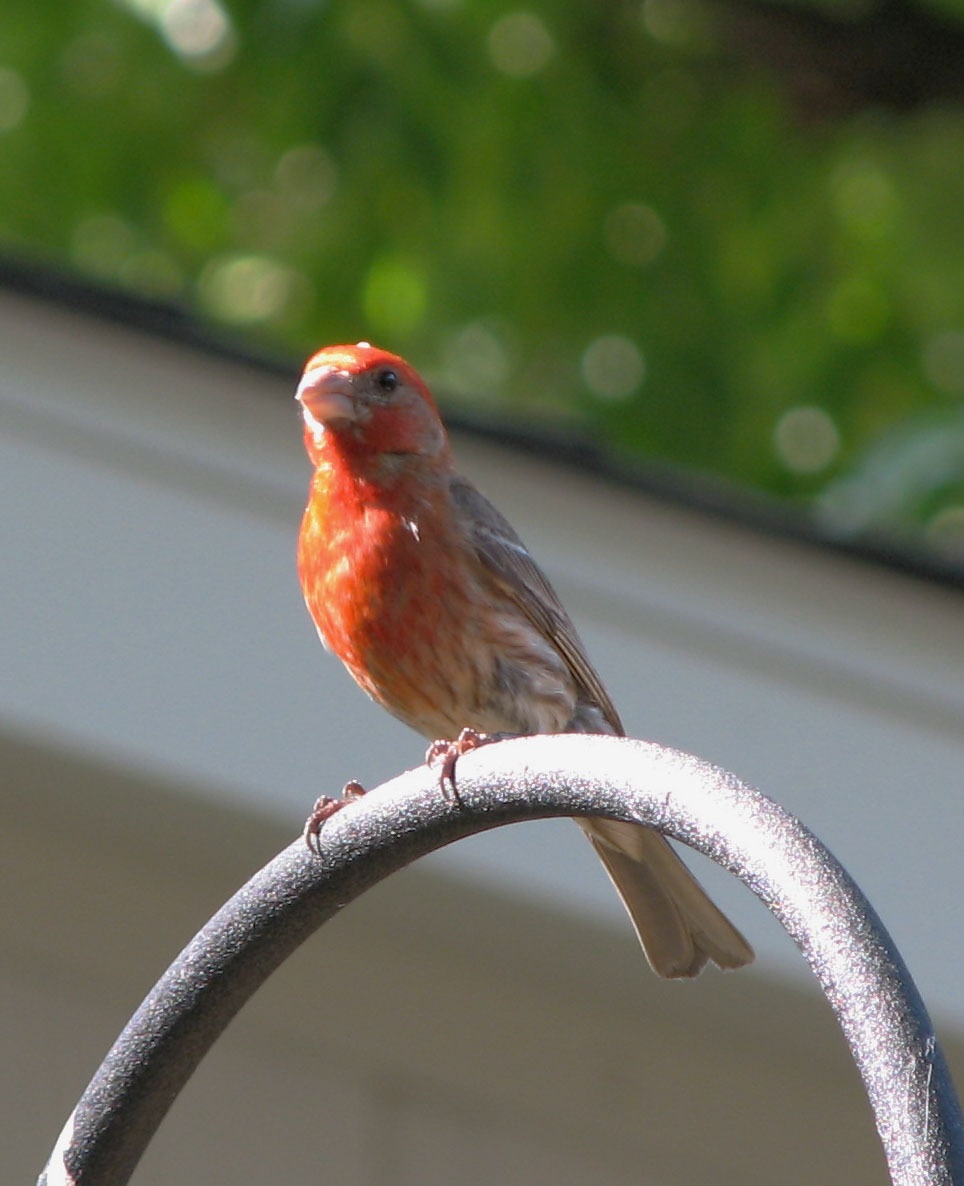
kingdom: Animalia
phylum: Chordata
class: Aves
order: Passeriformes
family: Fringillidae
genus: Haemorhous
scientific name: Haemorhous mexicanus
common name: House finch
